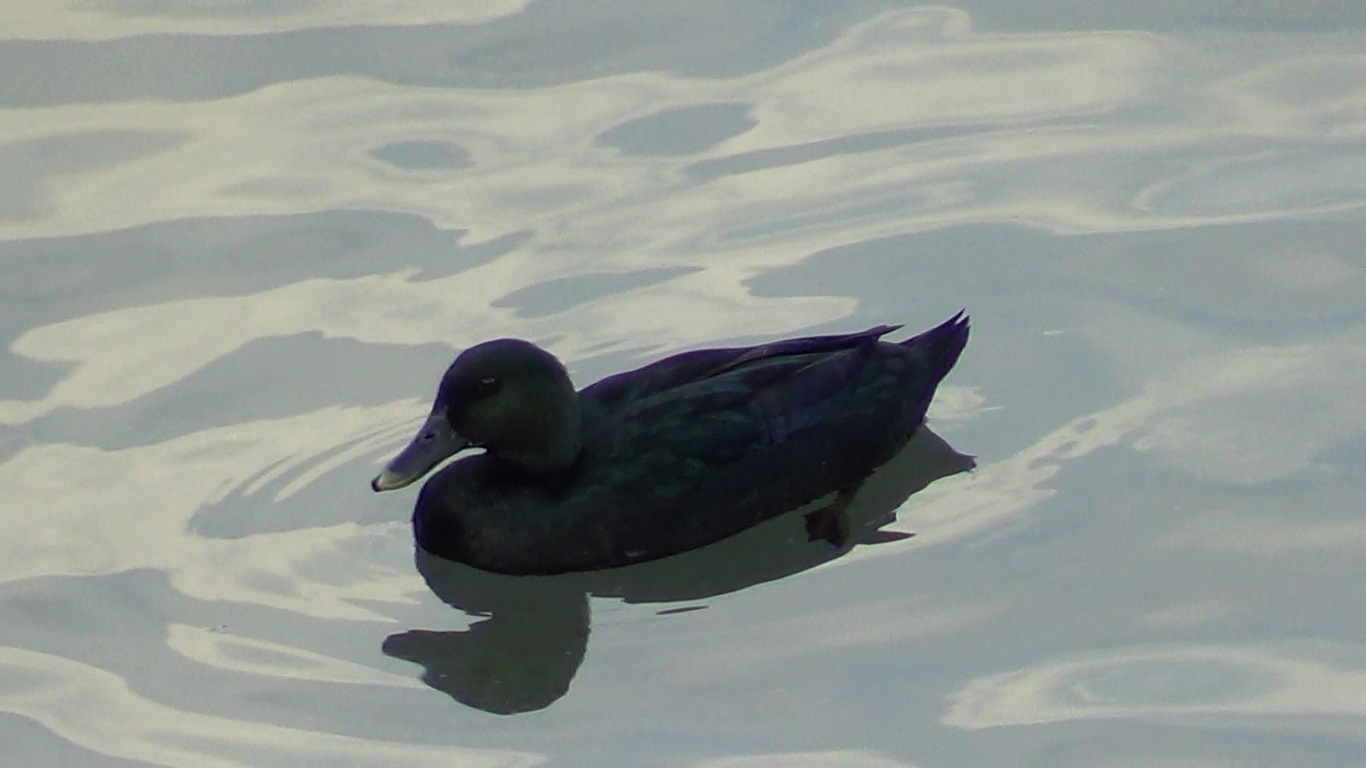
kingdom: Animalia
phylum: Chordata
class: Aves
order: Anseriformes
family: Anatidae
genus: Anas
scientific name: Anas platyrhynchos
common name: Mallard
